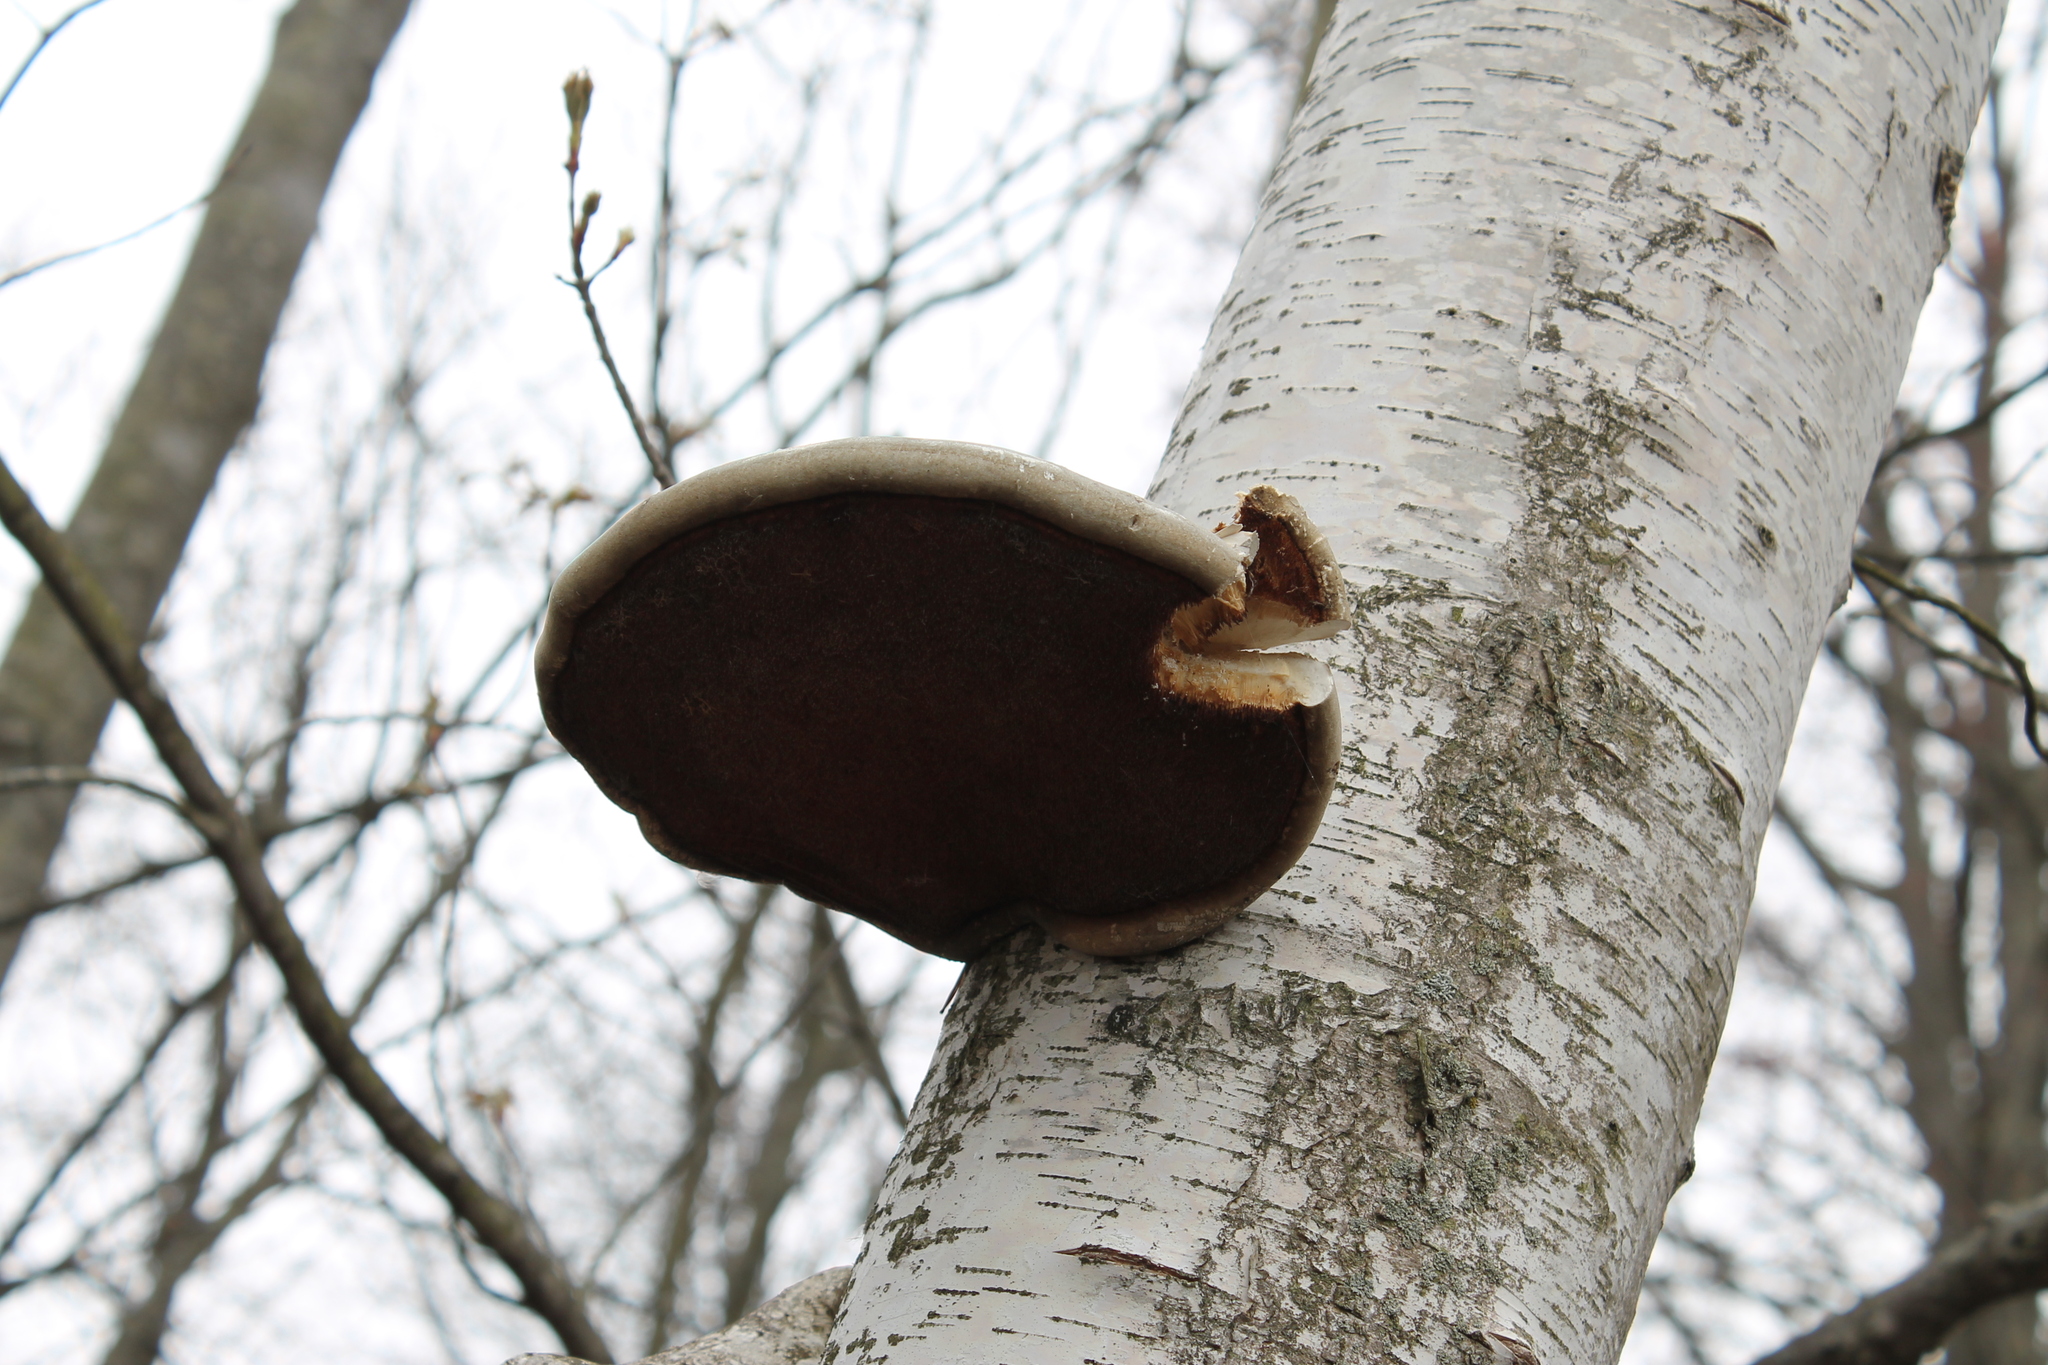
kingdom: Fungi
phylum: Basidiomycota
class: Agaricomycetes
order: Polyporales
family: Fomitopsidaceae
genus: Fomitopsis
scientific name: Fomitopsis betulina
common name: Birch polypore
